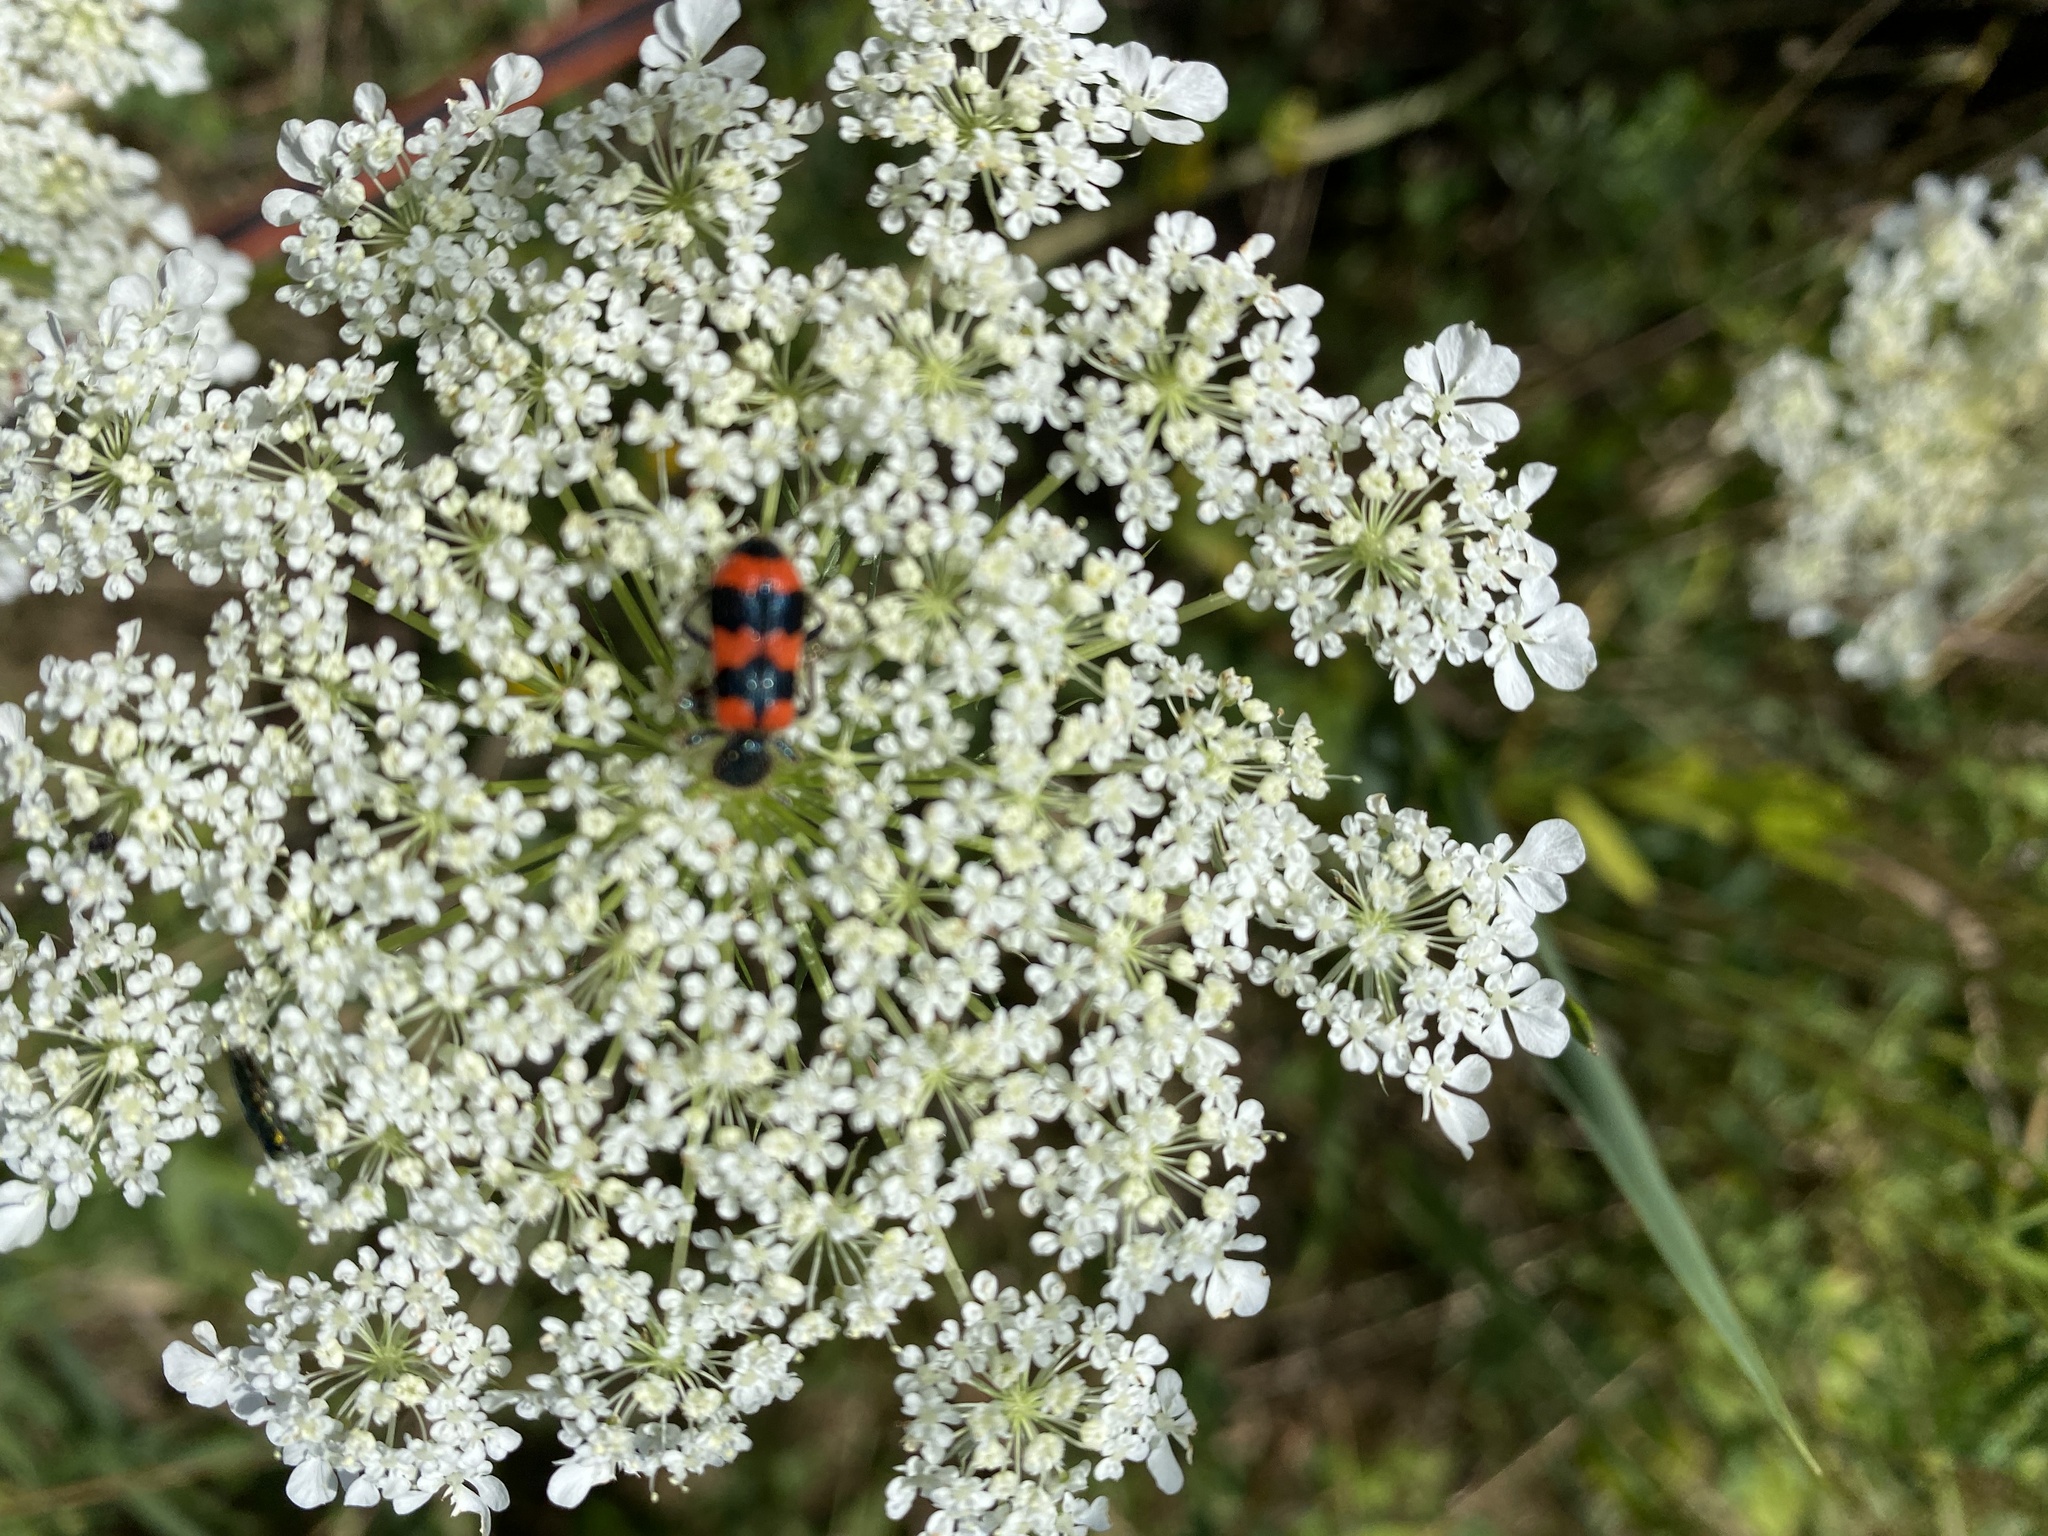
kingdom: Animalia
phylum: Arthropoda
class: Insecta
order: Coleoptera
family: Cleridae
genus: Trichodes
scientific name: Trichodes apiarius
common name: Bee-eating beetle
